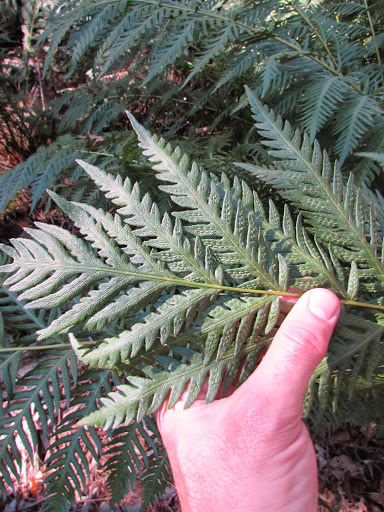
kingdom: Plantae
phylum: Tracheophyta
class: Polypodiopsida
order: Polypodiales
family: Blechnaceae
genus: Woodwardia
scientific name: Woodwardia fimbriata
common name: Giant chain fern
